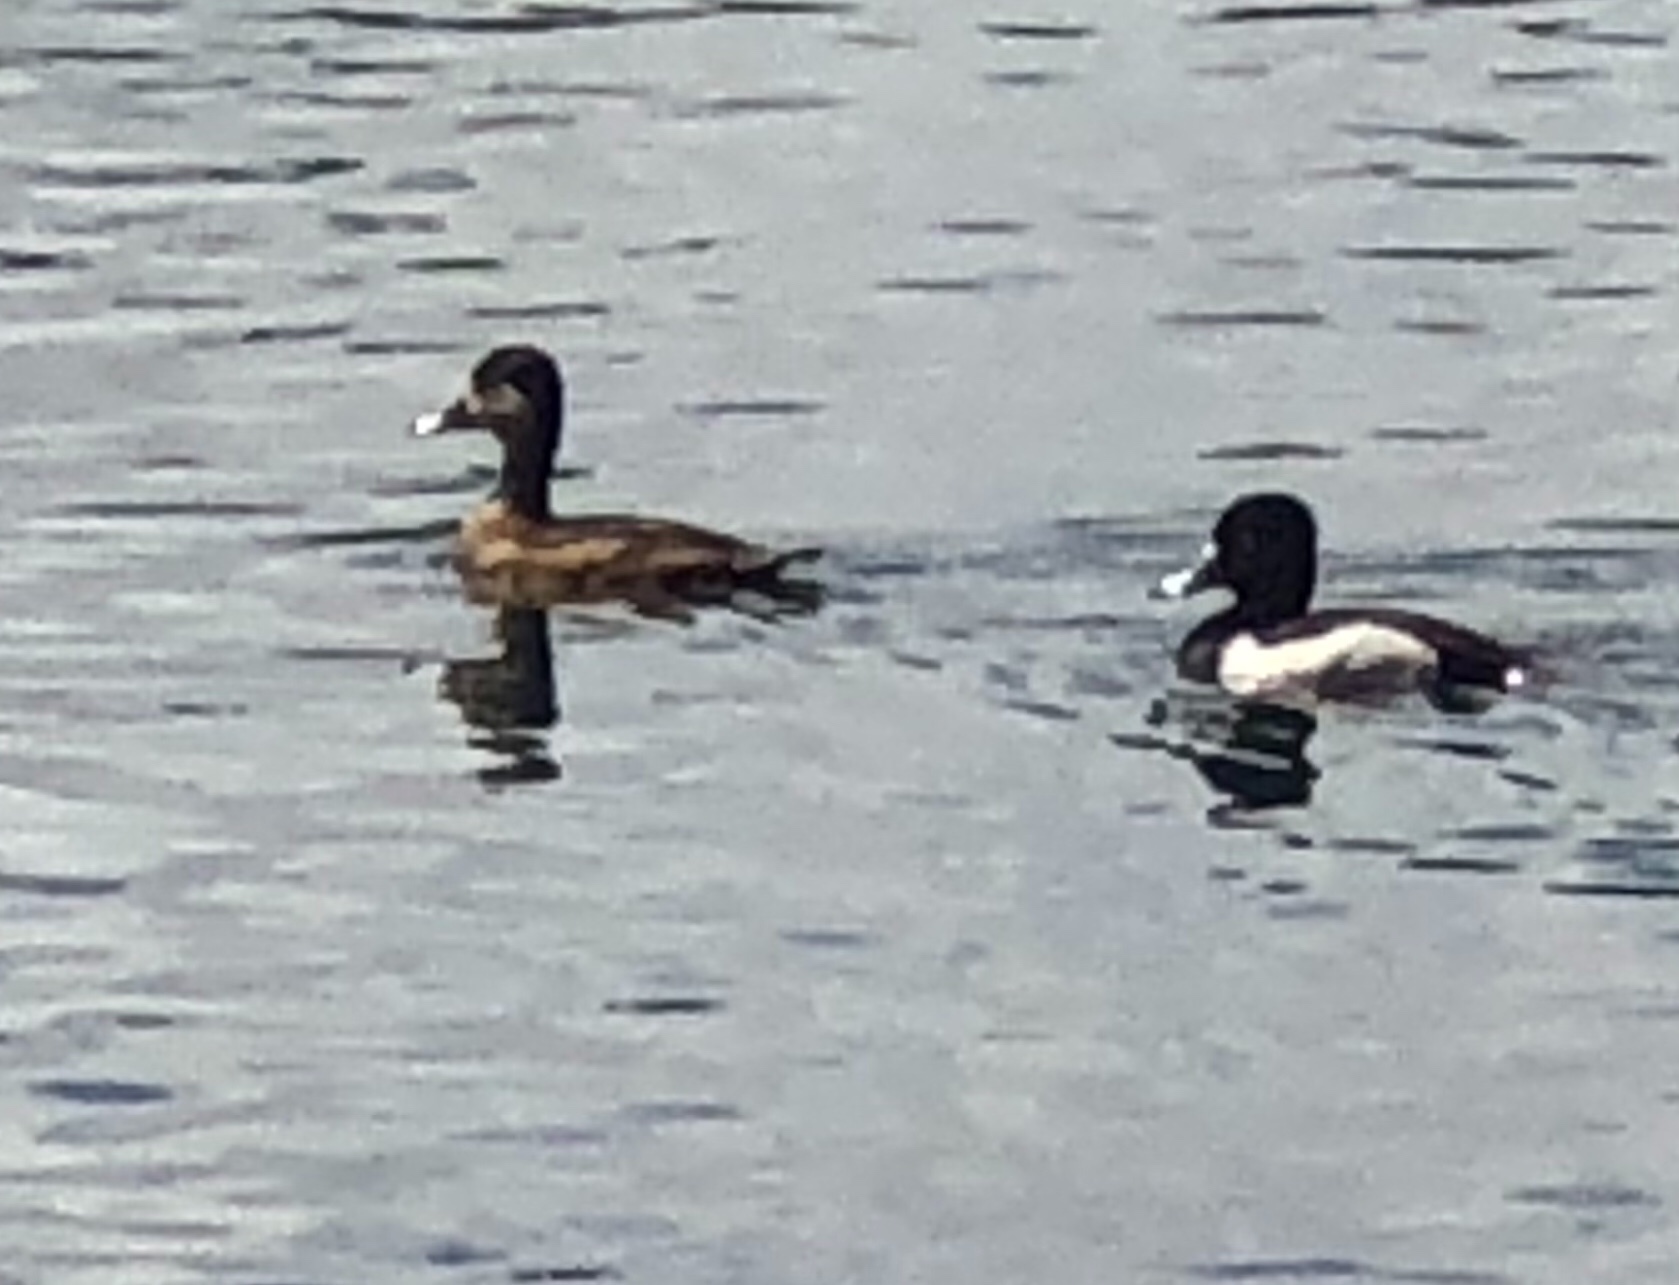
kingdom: Animalia
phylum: Chordata
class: Aves
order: Anseriformes
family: Anatidae
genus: Aythya
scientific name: Aythya collaris
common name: Ring-necked duck
